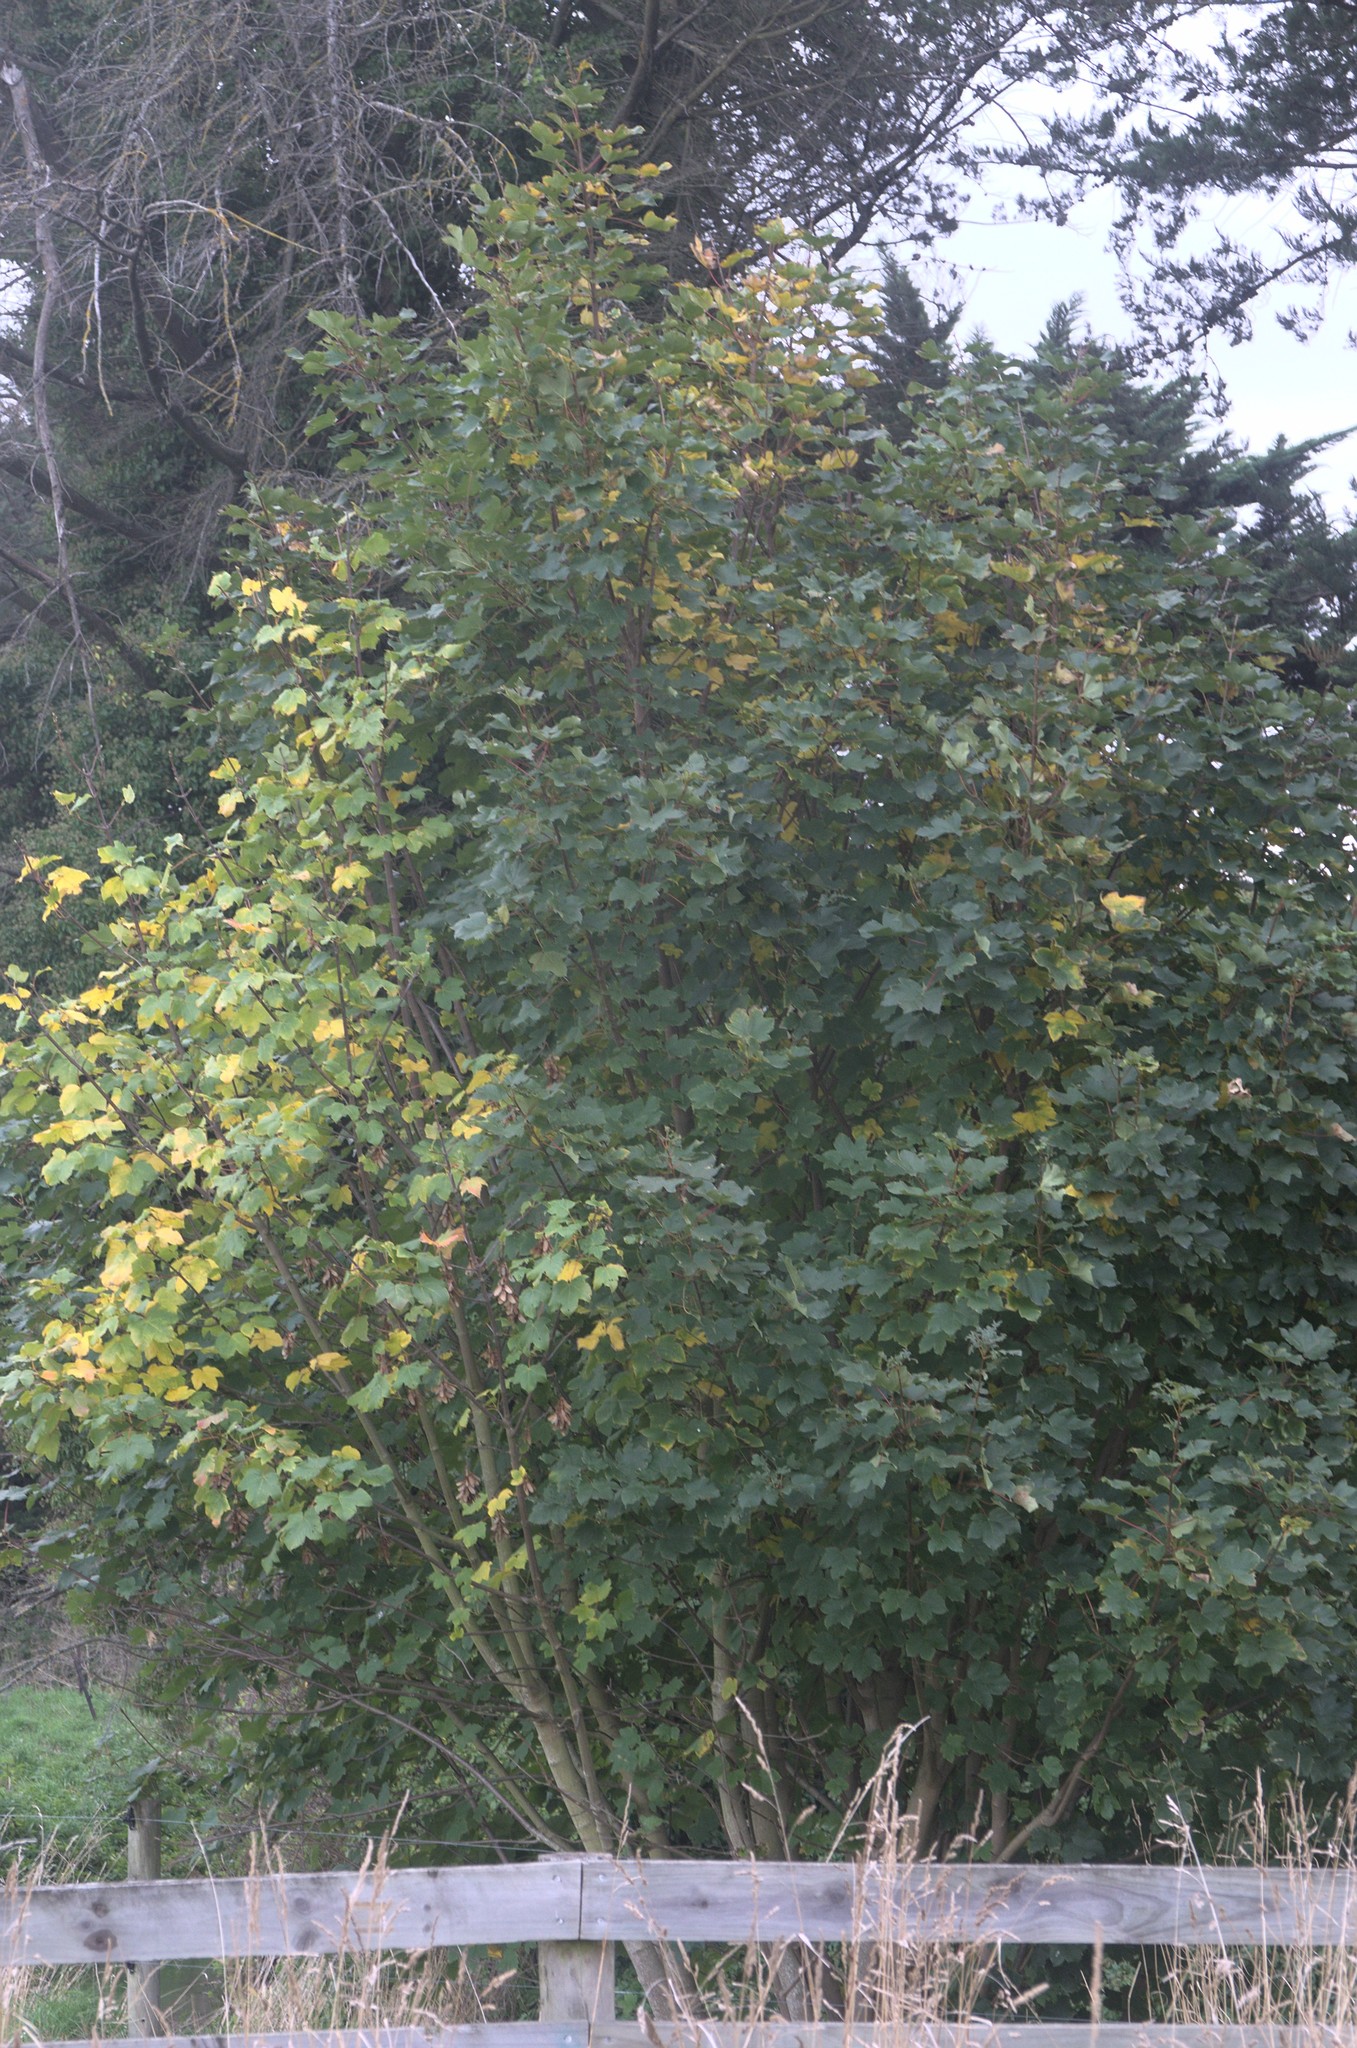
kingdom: Plantae
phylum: Tracheophyta
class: Magnoliopsida
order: Sapindales
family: Sapindaceae
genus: Acer
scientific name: Acer pseudoplatanus
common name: Sycamore
